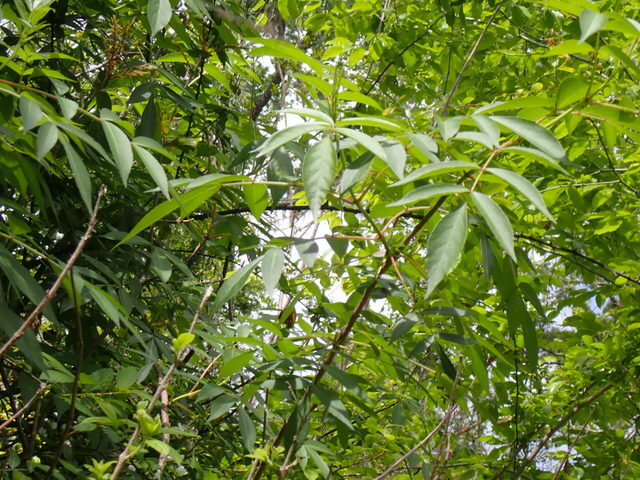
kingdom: Plantae
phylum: Tracheophyta
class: Magnoliopsida
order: Dipsacales
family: Viburnaceae
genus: Sambucus
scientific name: Sambucus canadensis
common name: American elder
